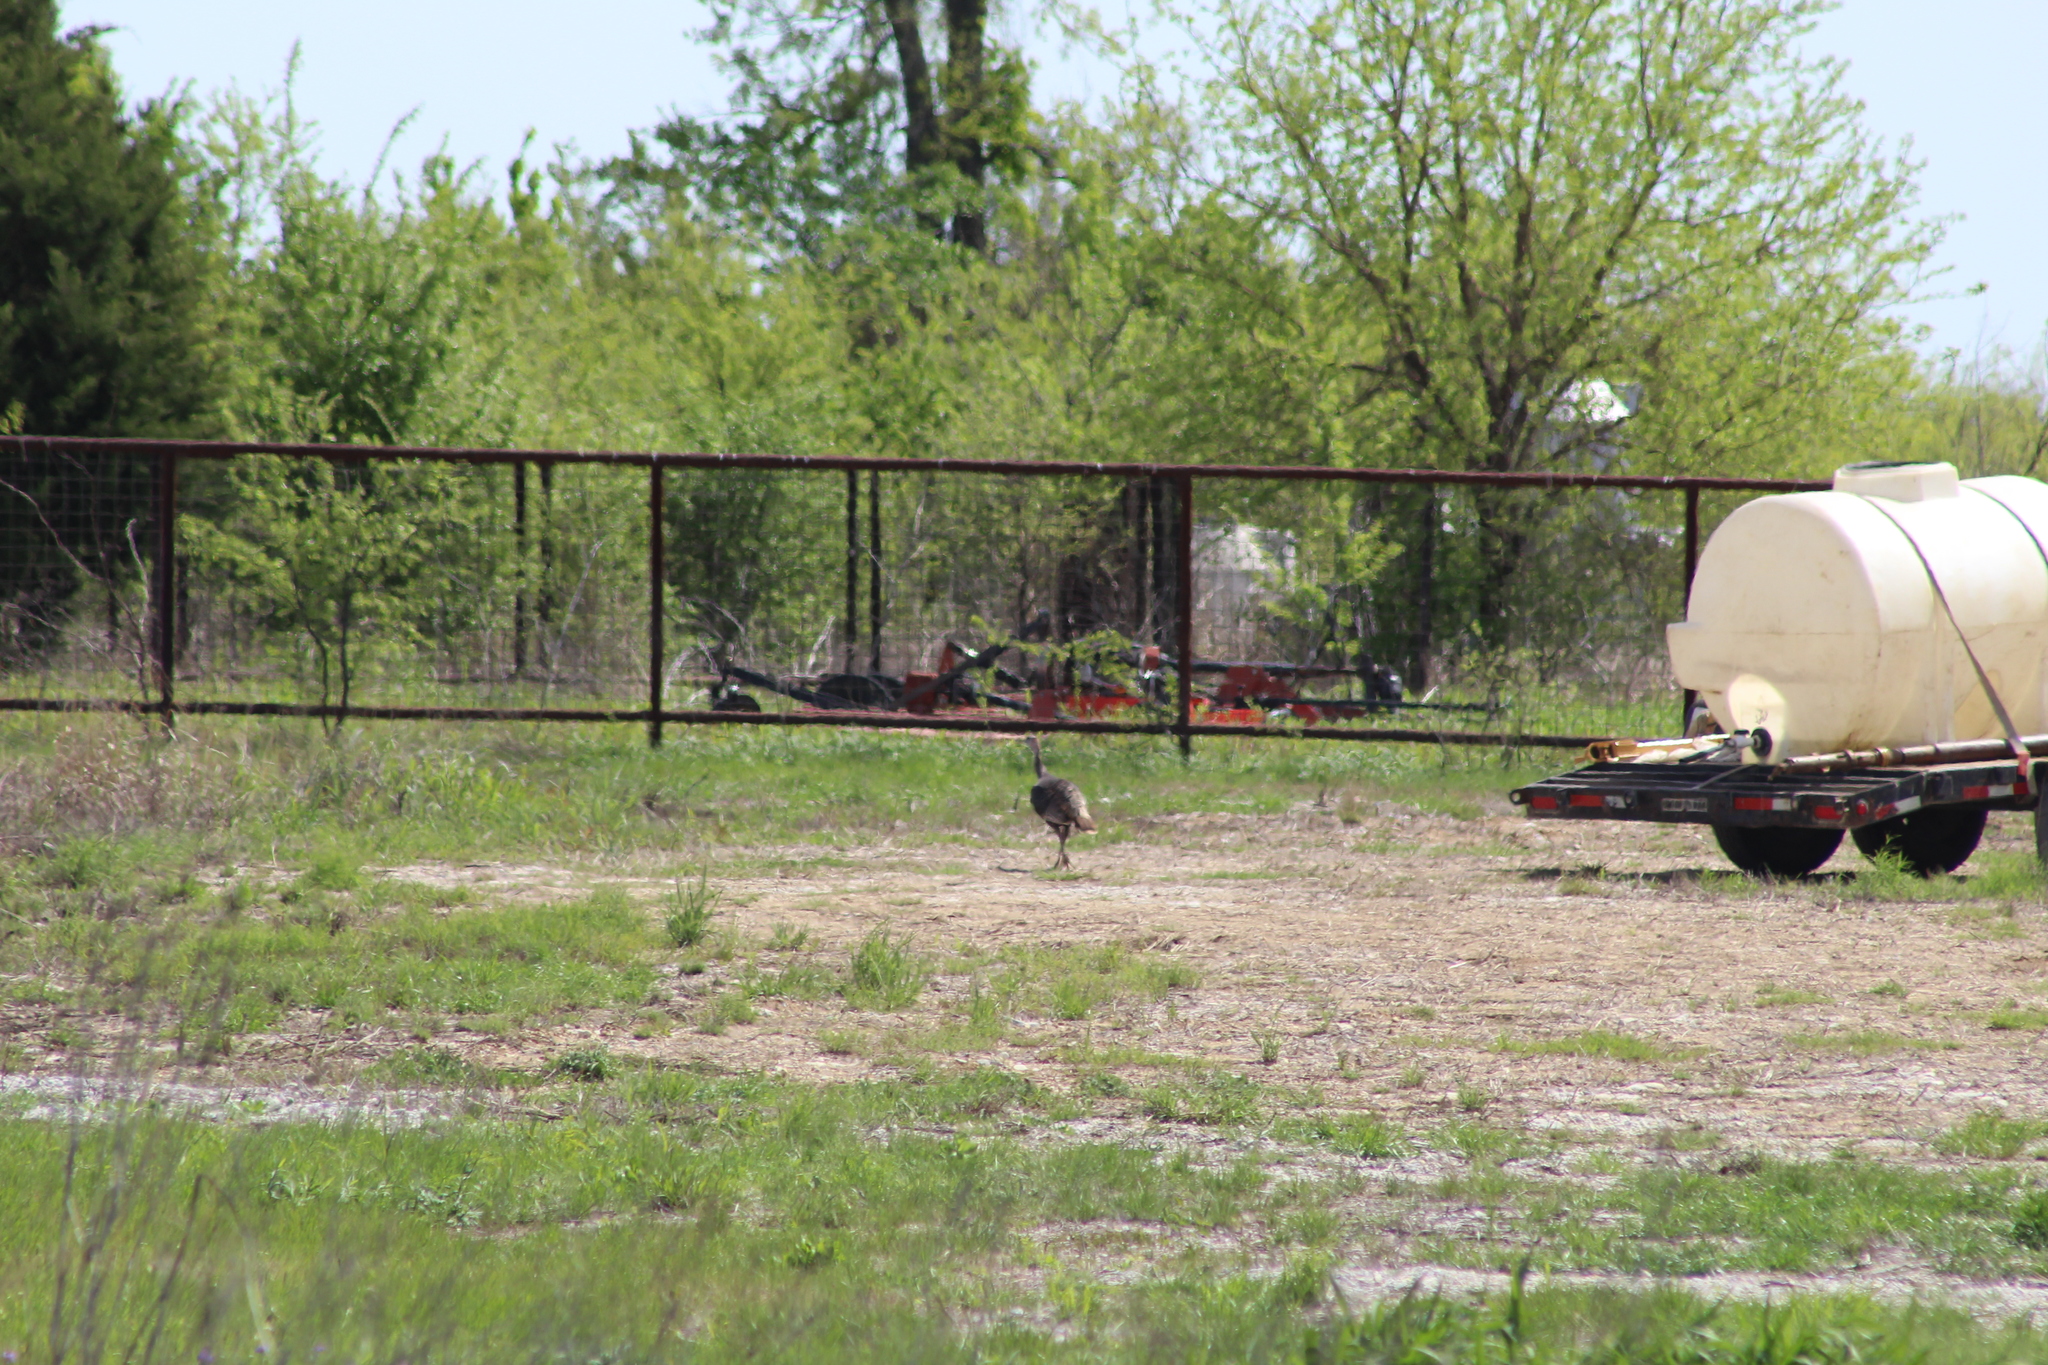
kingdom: Animalia
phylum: Chordata
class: Aves
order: Galliformes
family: Phasianidae
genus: Meleagris
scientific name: Meleagris gallopavo
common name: Wild turkey
